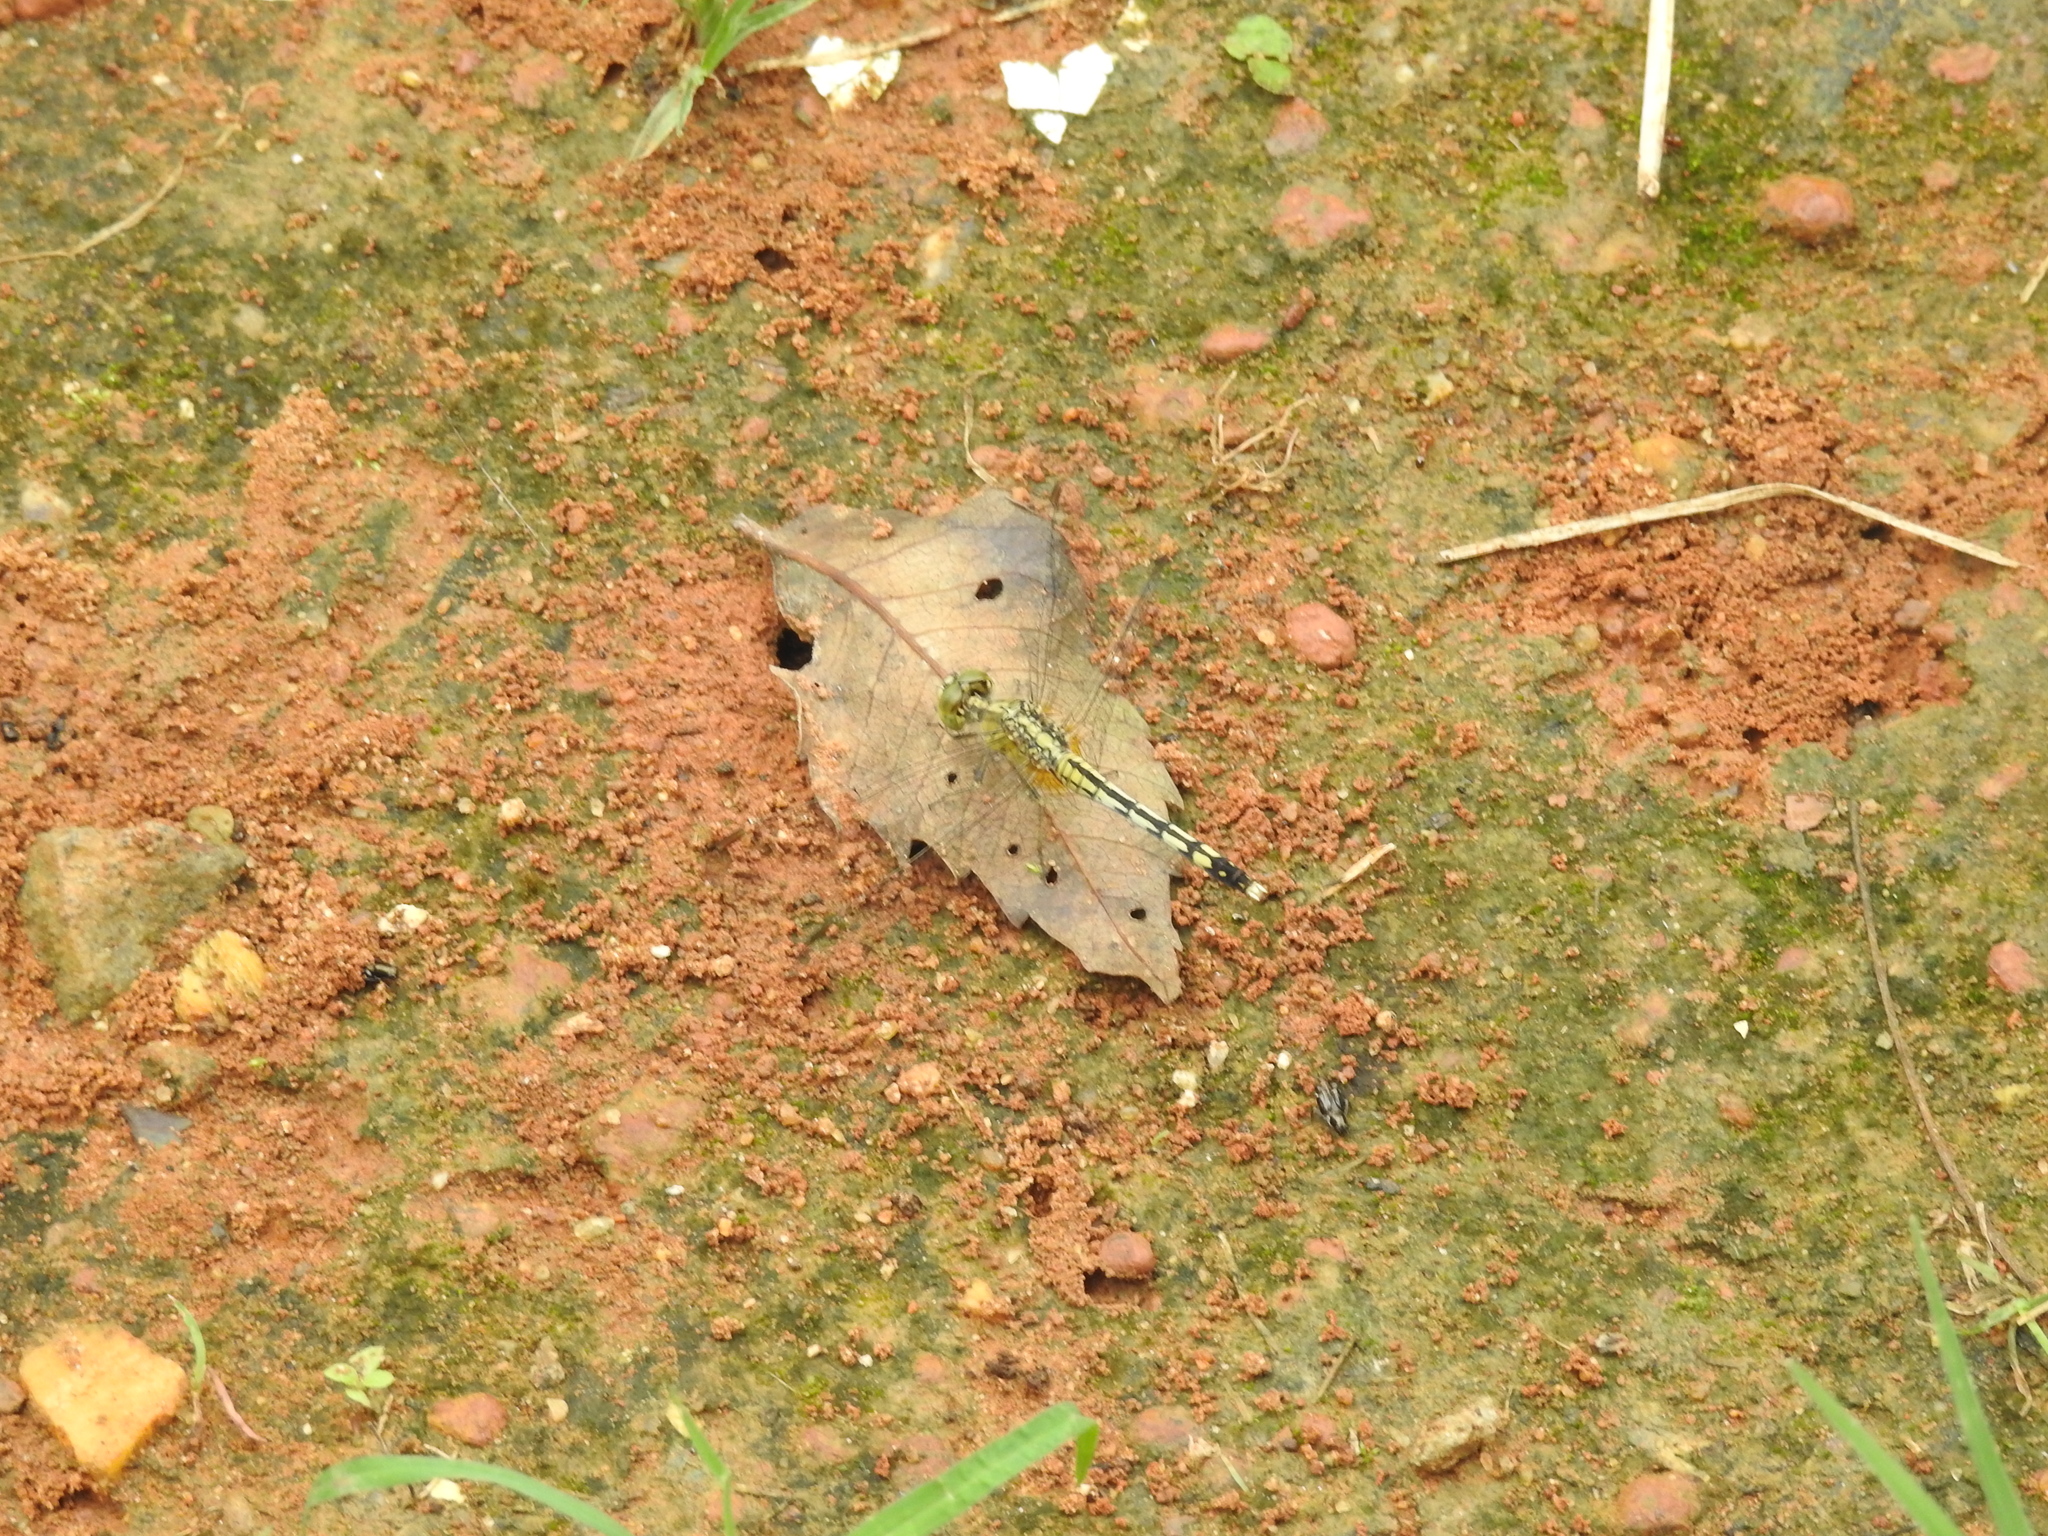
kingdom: Animalia
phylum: Arthropoda
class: Insecta
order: Odonata
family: Libellulidae
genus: Diplacodes
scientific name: Diplacodes trivialis
